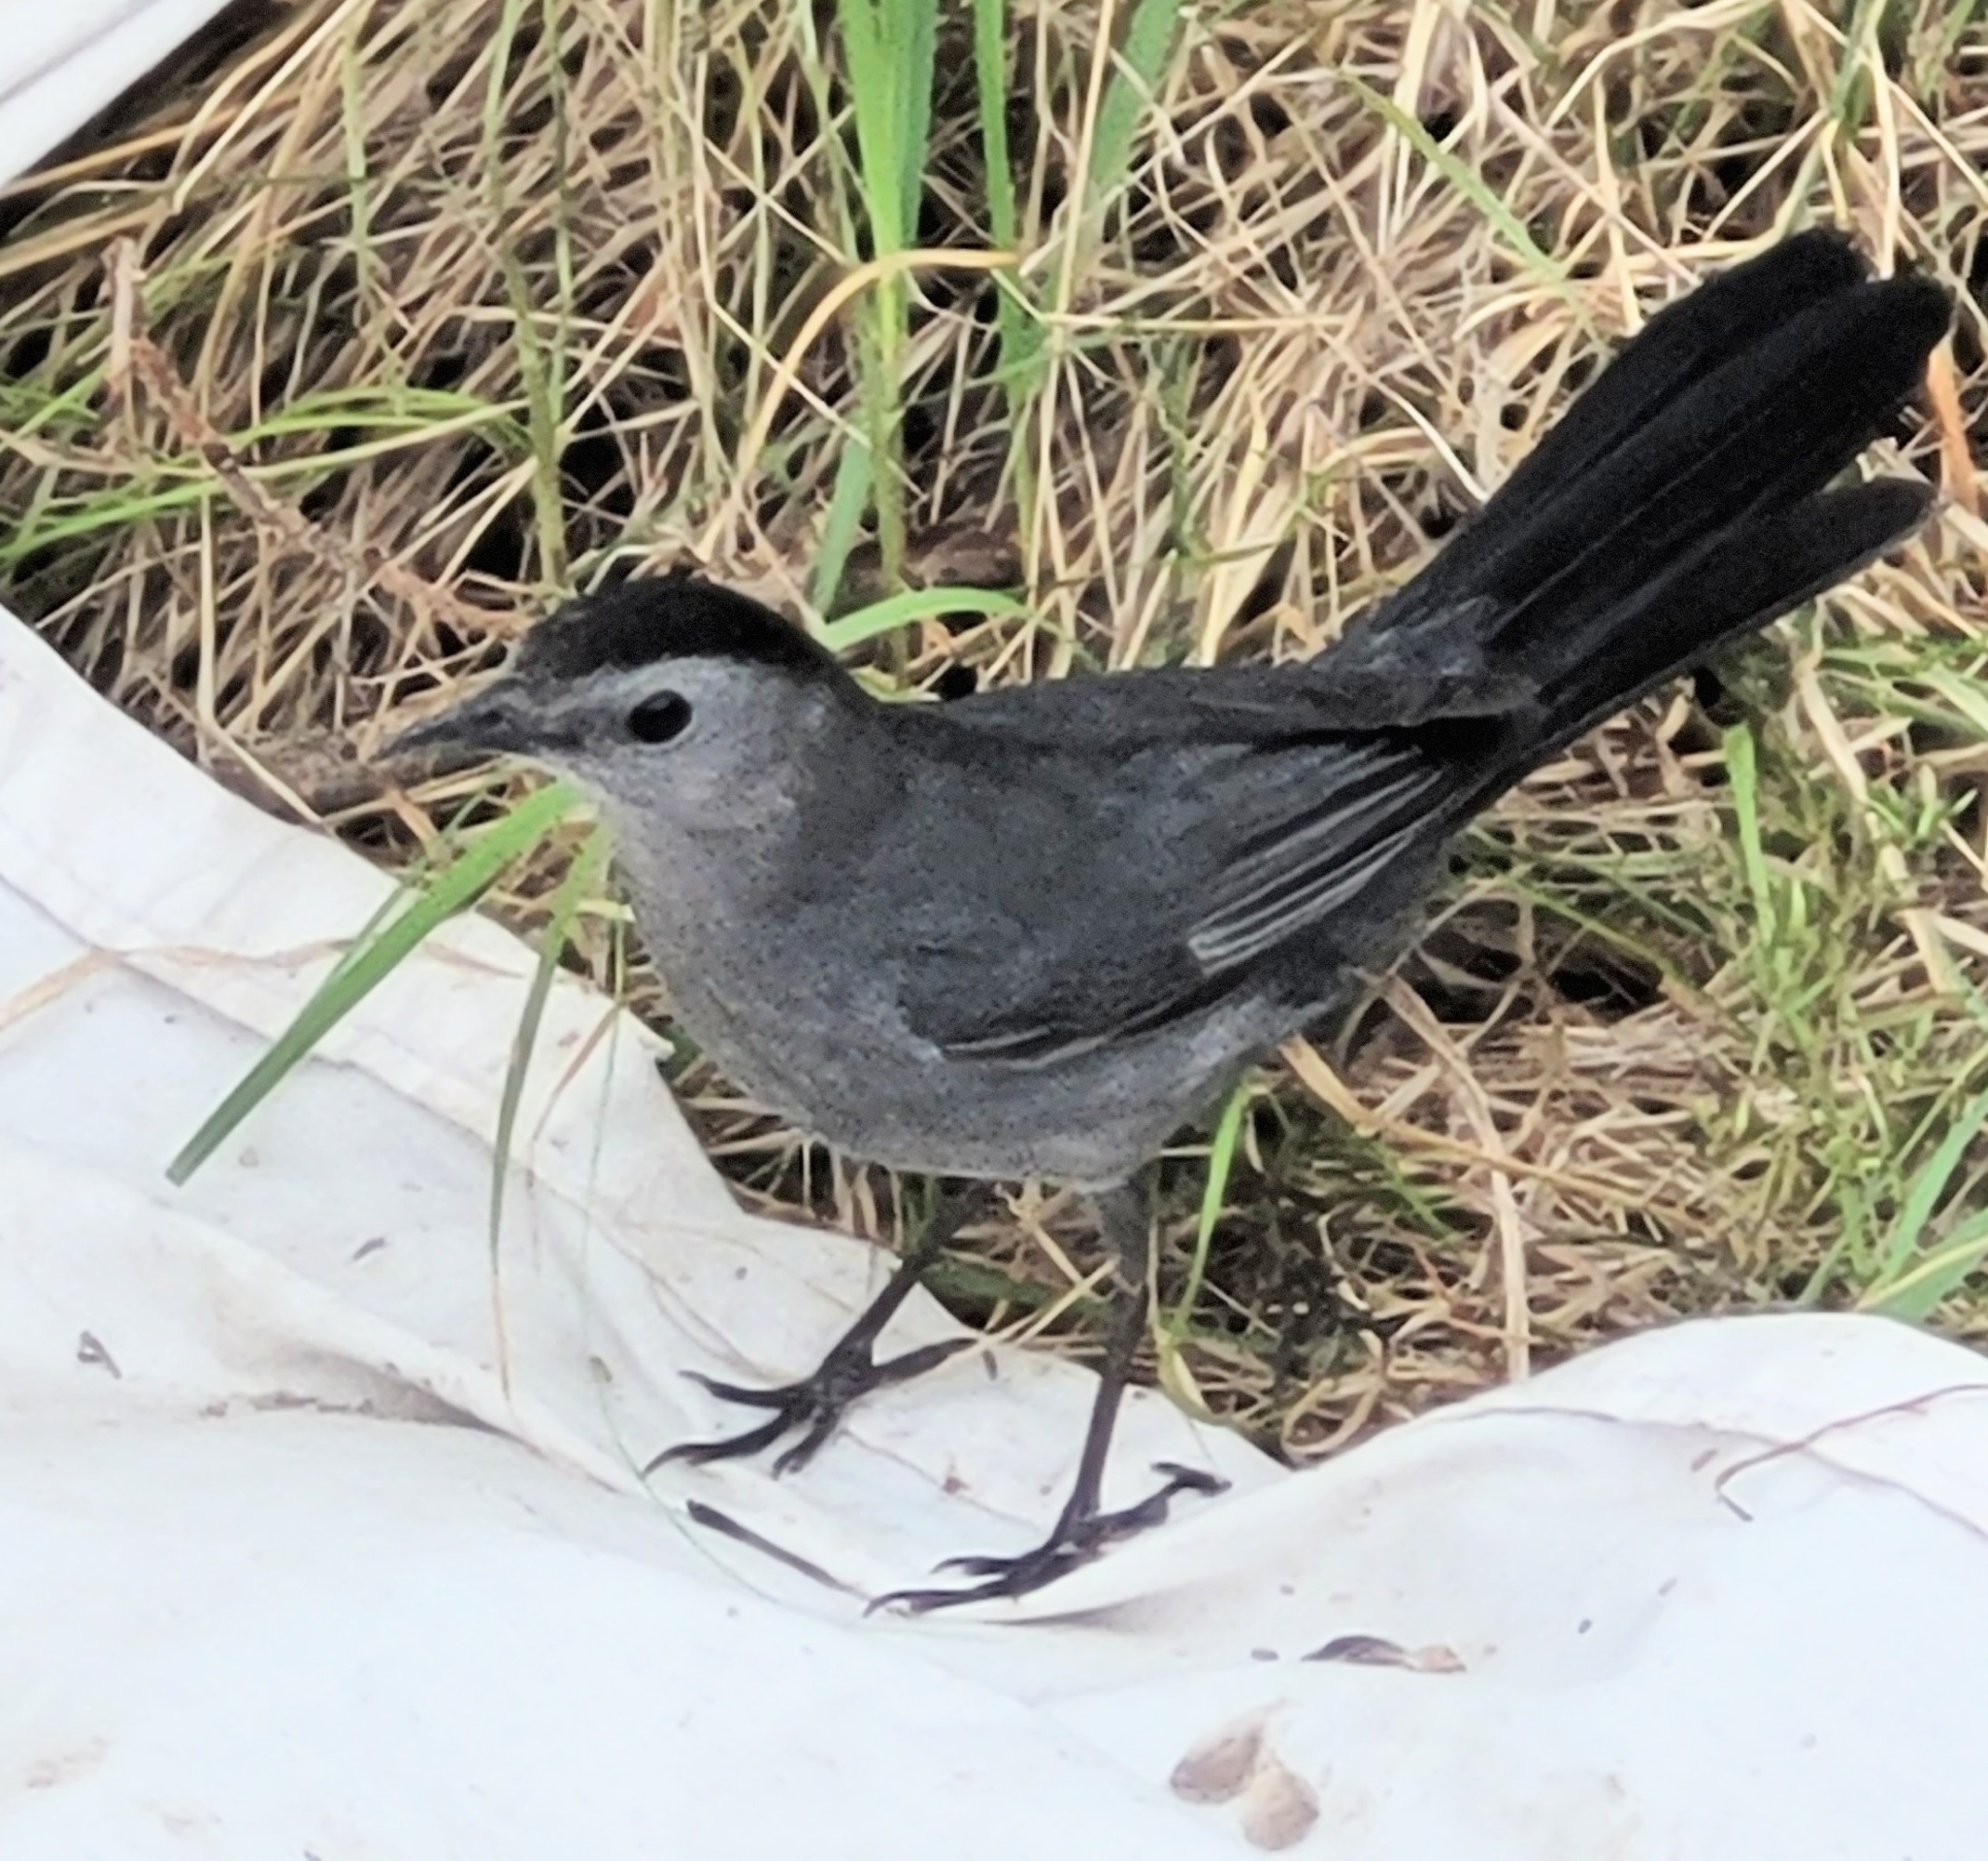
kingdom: Animalia
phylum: Chordata
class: Aves
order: Passeriformes
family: Mimidae
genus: Dumetella
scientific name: Dumetella carolinensis
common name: Gray catbird
